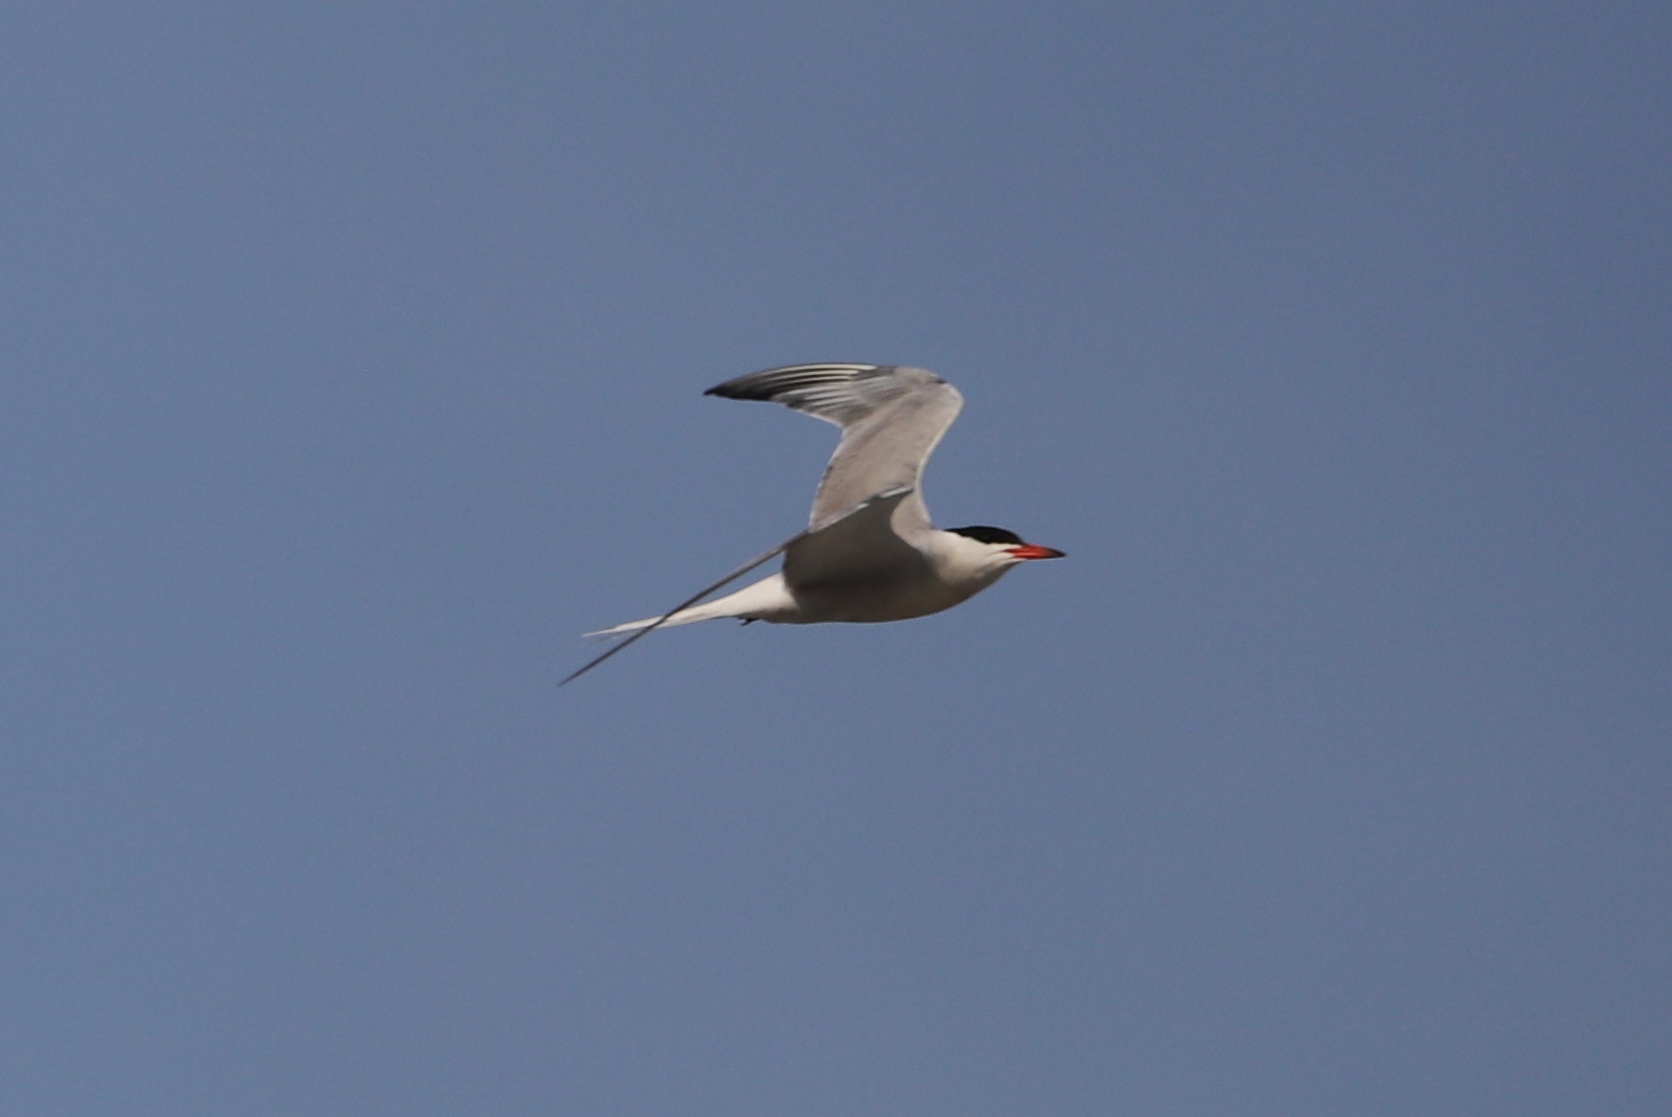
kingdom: Animalia
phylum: Chordata
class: Aves
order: Charadriiformes
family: Laridae
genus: Sterna
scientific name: Sterna hirundo
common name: Common tern
